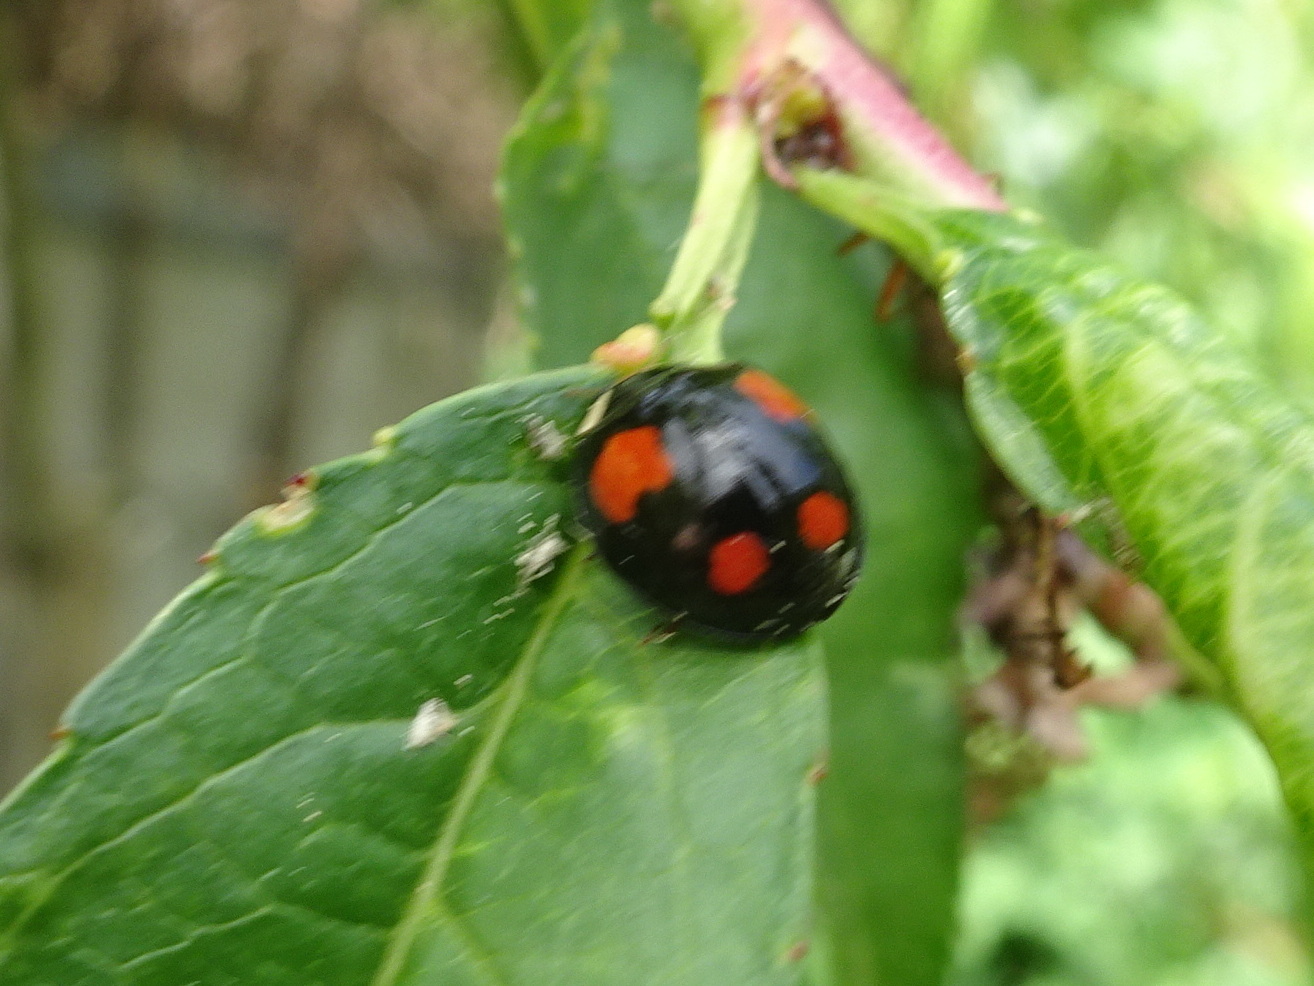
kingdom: Animalia
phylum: Arthropoda
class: Insecta
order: Coleoptera
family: Coccinellidae
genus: Harmonia
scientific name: Harmonia axyridis
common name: Harlequin ladybird
